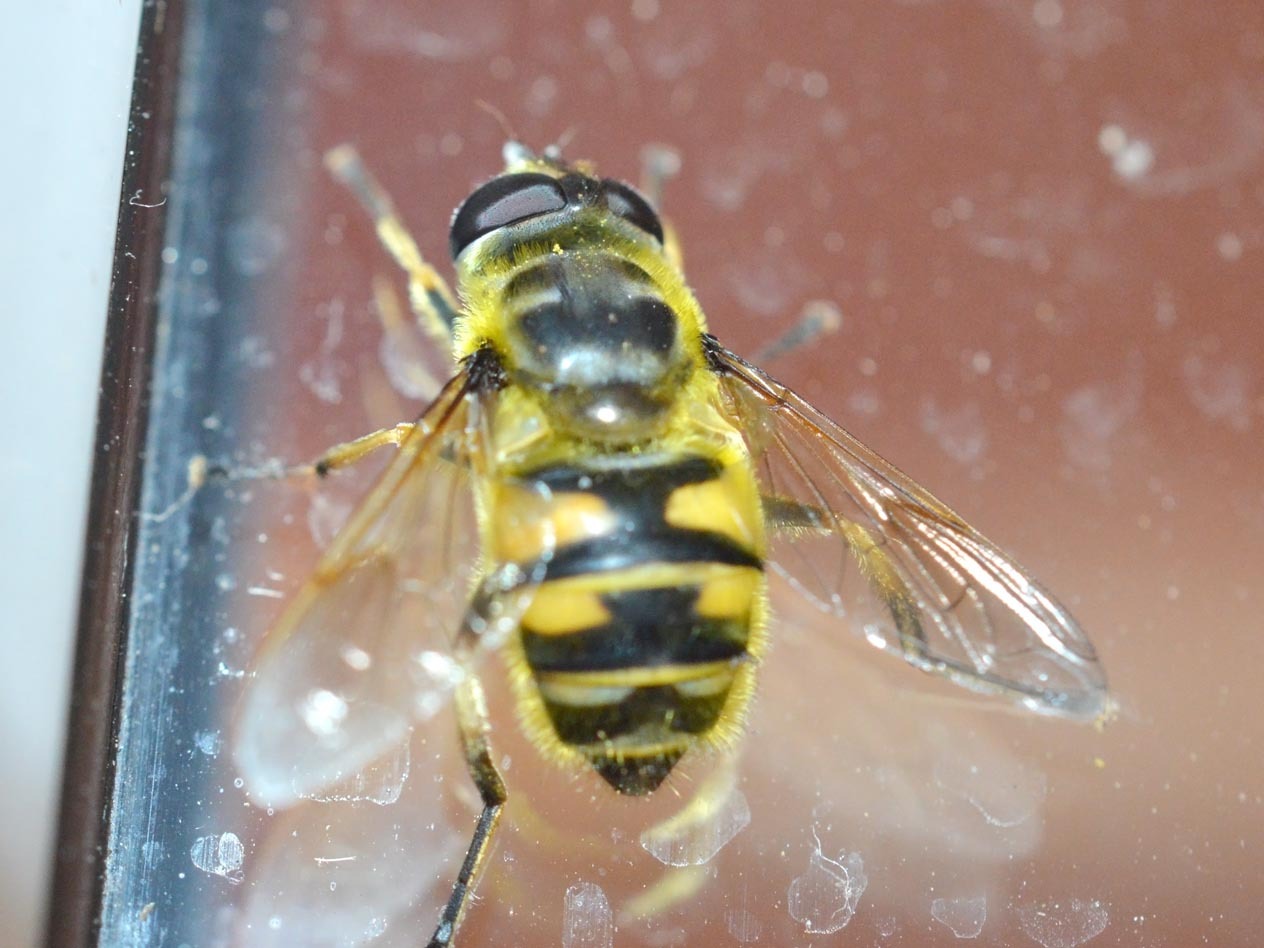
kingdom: Animalia
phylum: Arthropoda
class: Insecta
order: Diptera
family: Syrphidae
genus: Myathropa
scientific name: Myathropa florea
